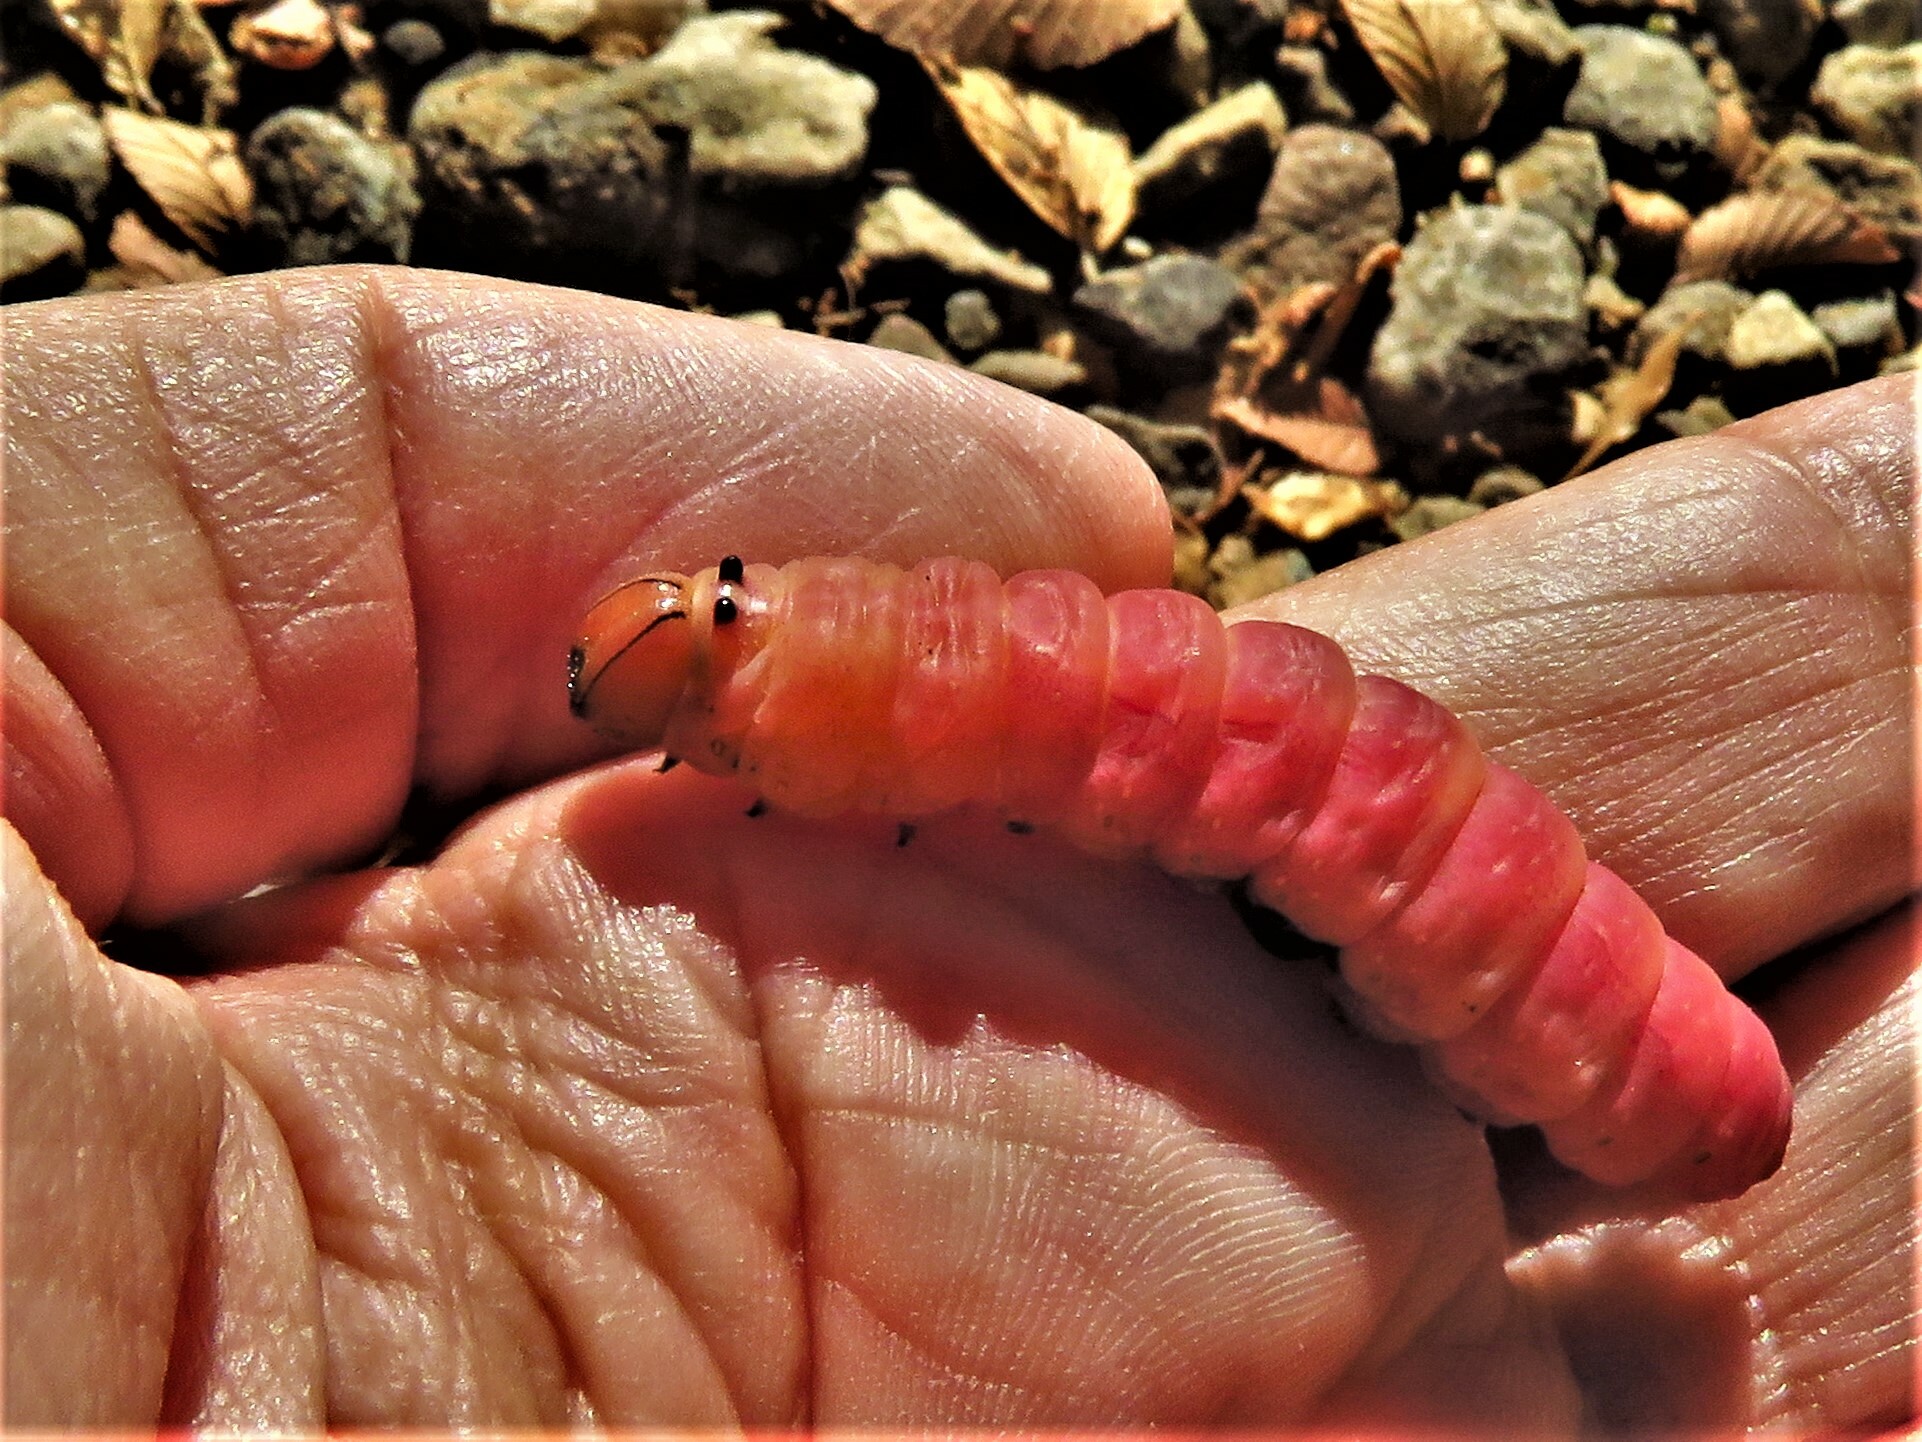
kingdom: Animalia
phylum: Arthropoda
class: Insecta
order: Lepidoptera
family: Notodontidae
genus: Heterocampa
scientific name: Heterocampa
